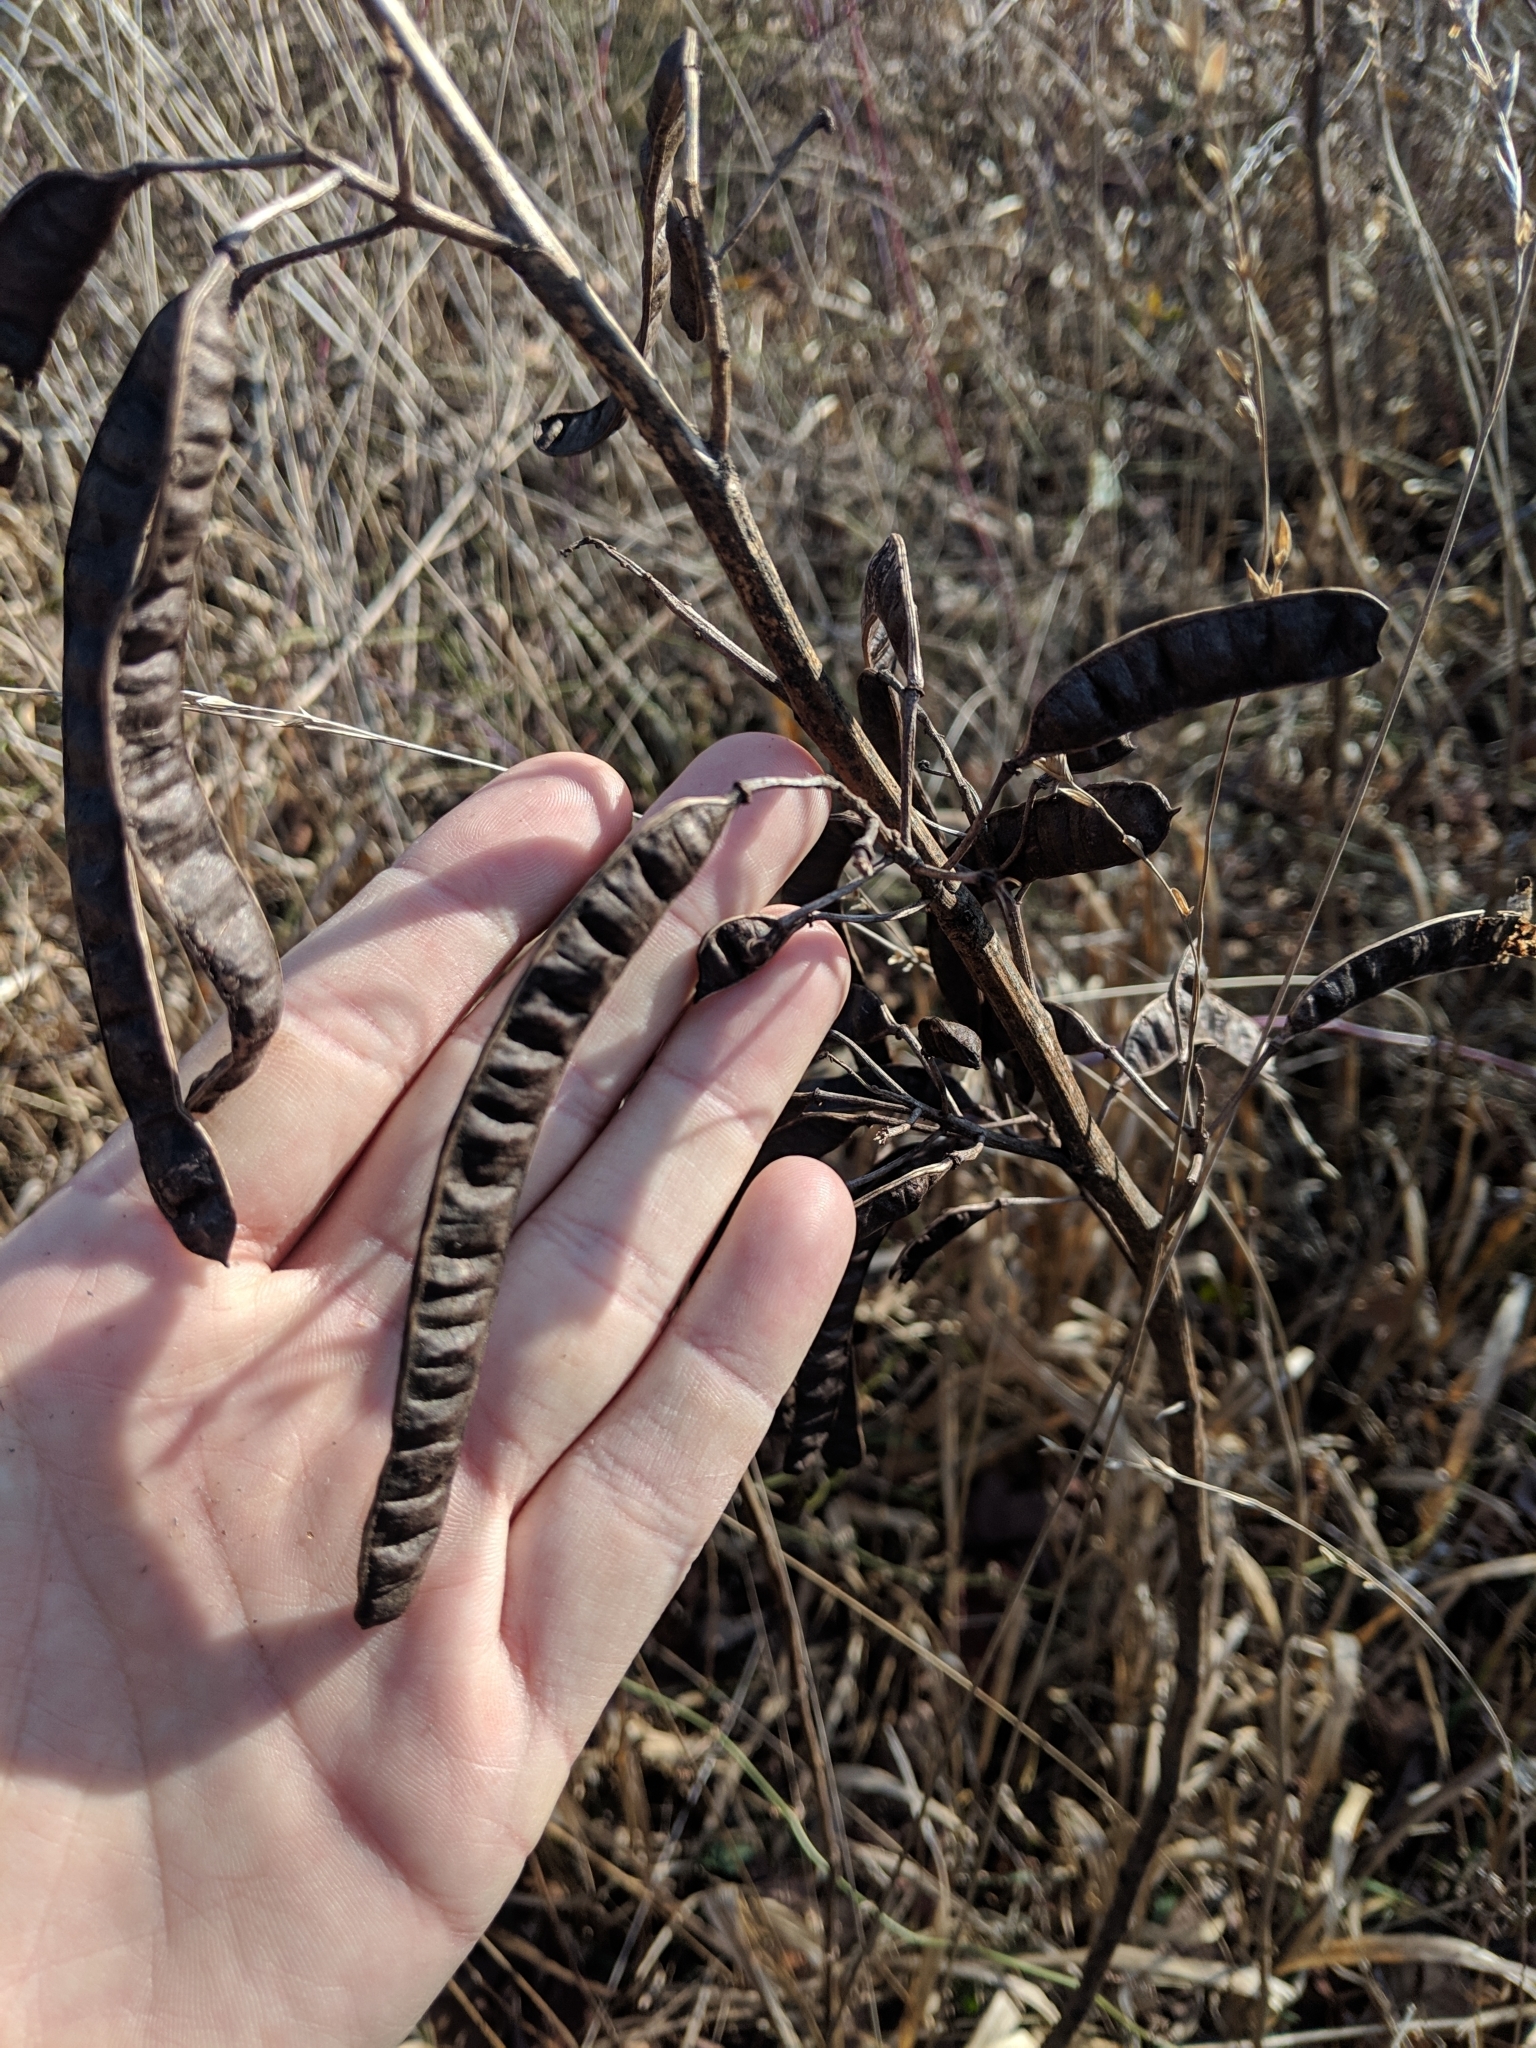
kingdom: Plantae
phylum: Tracheophyta
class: Magnoliopsida
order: Fabales
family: Fabaceae
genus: Senna
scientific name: Senna marilandica
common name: American senna
